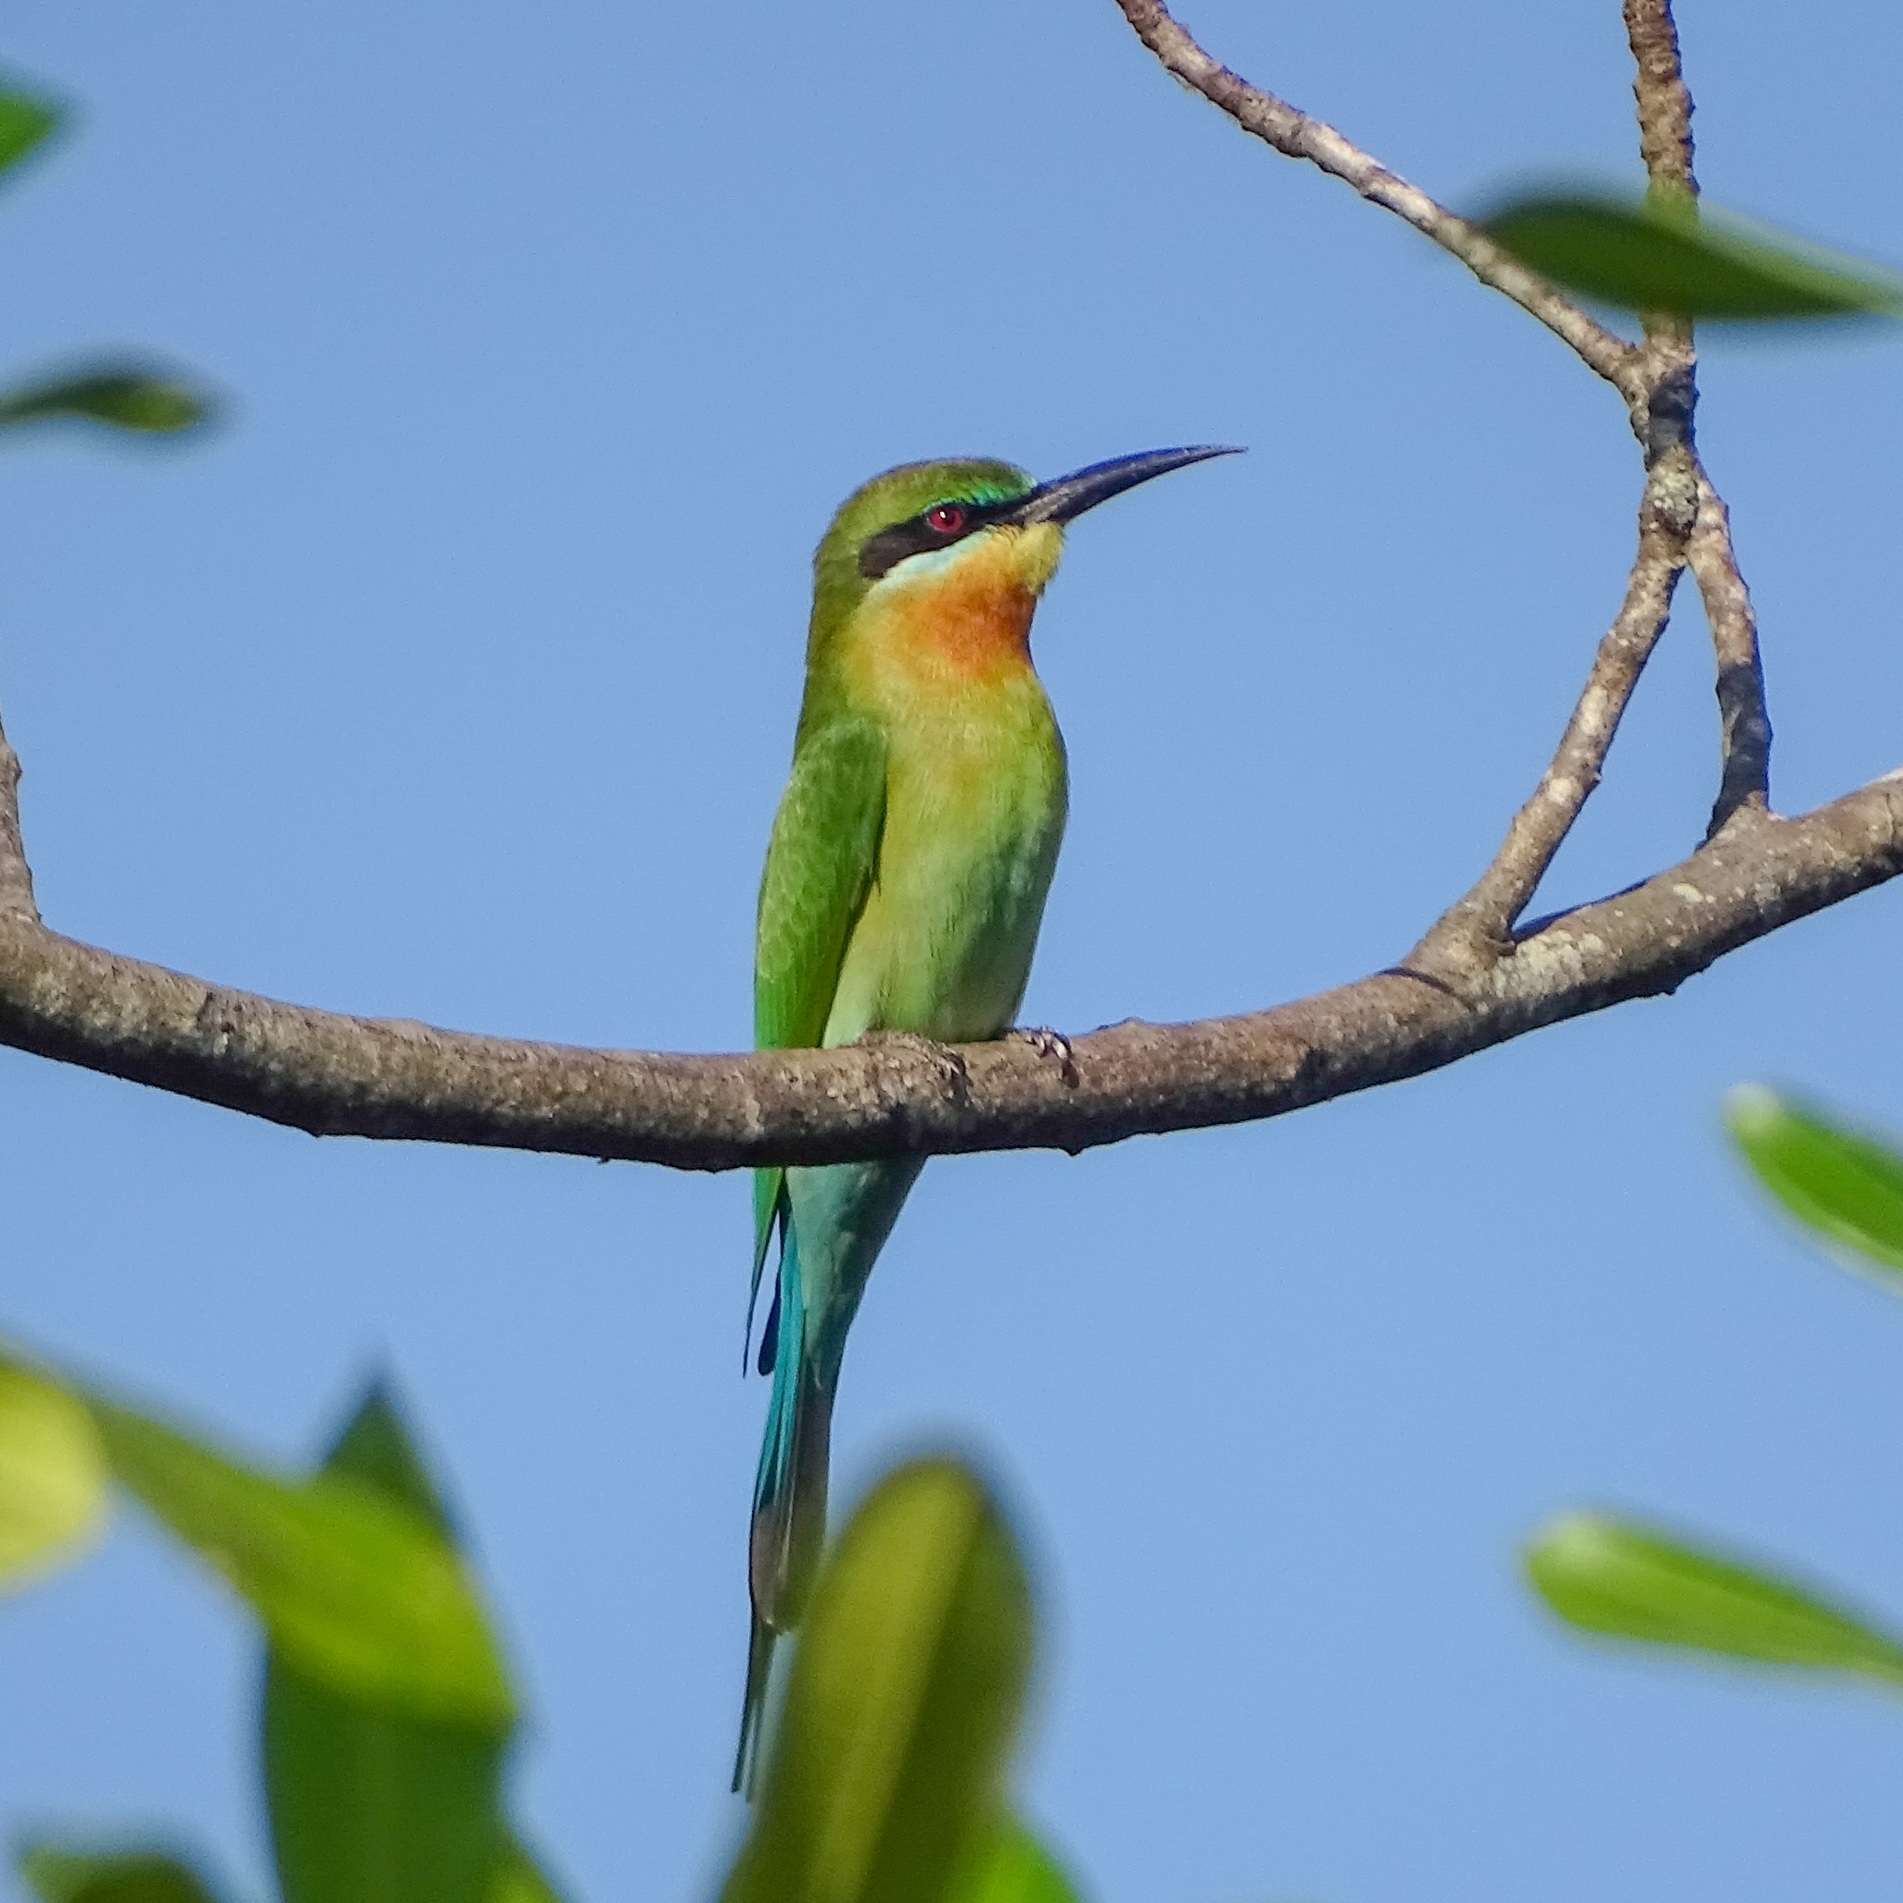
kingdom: Animalia
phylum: Chordata
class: Aves
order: Coraciiformes
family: Meropidae
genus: Merops
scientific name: Merops philippinus
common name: Blue-tailed bee-eater
